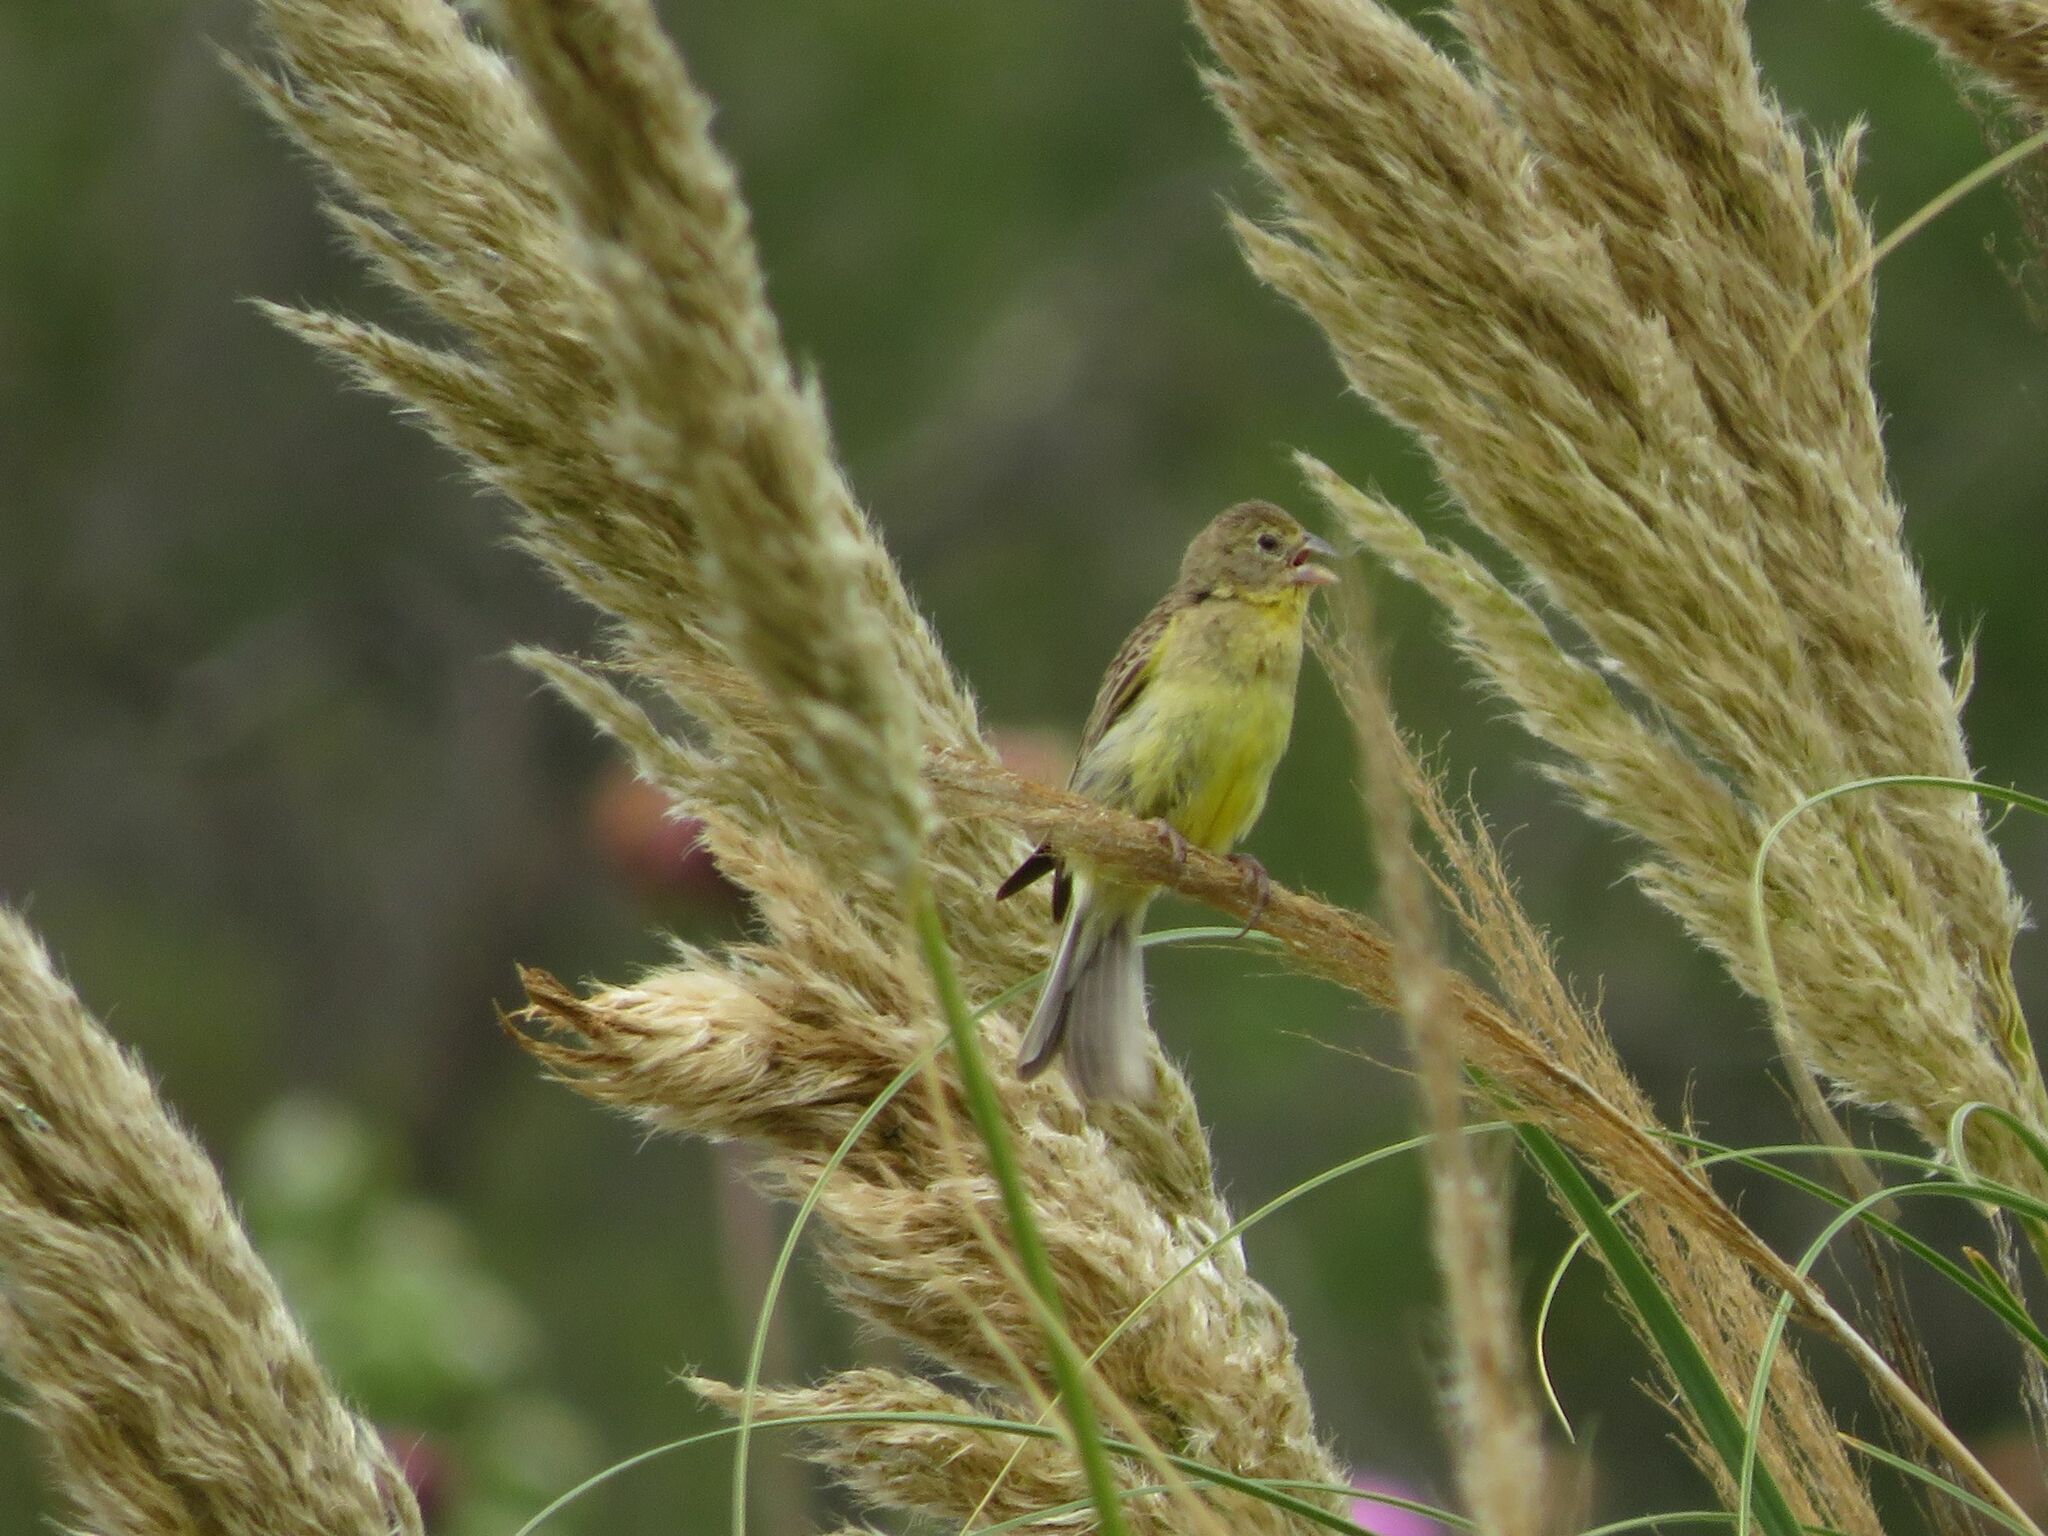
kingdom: Animalia
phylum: Chordata
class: Aves
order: Passeriformes
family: Thraupidae
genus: Sicalis
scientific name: Sicalis luteola
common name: Grassland yellow-finch
